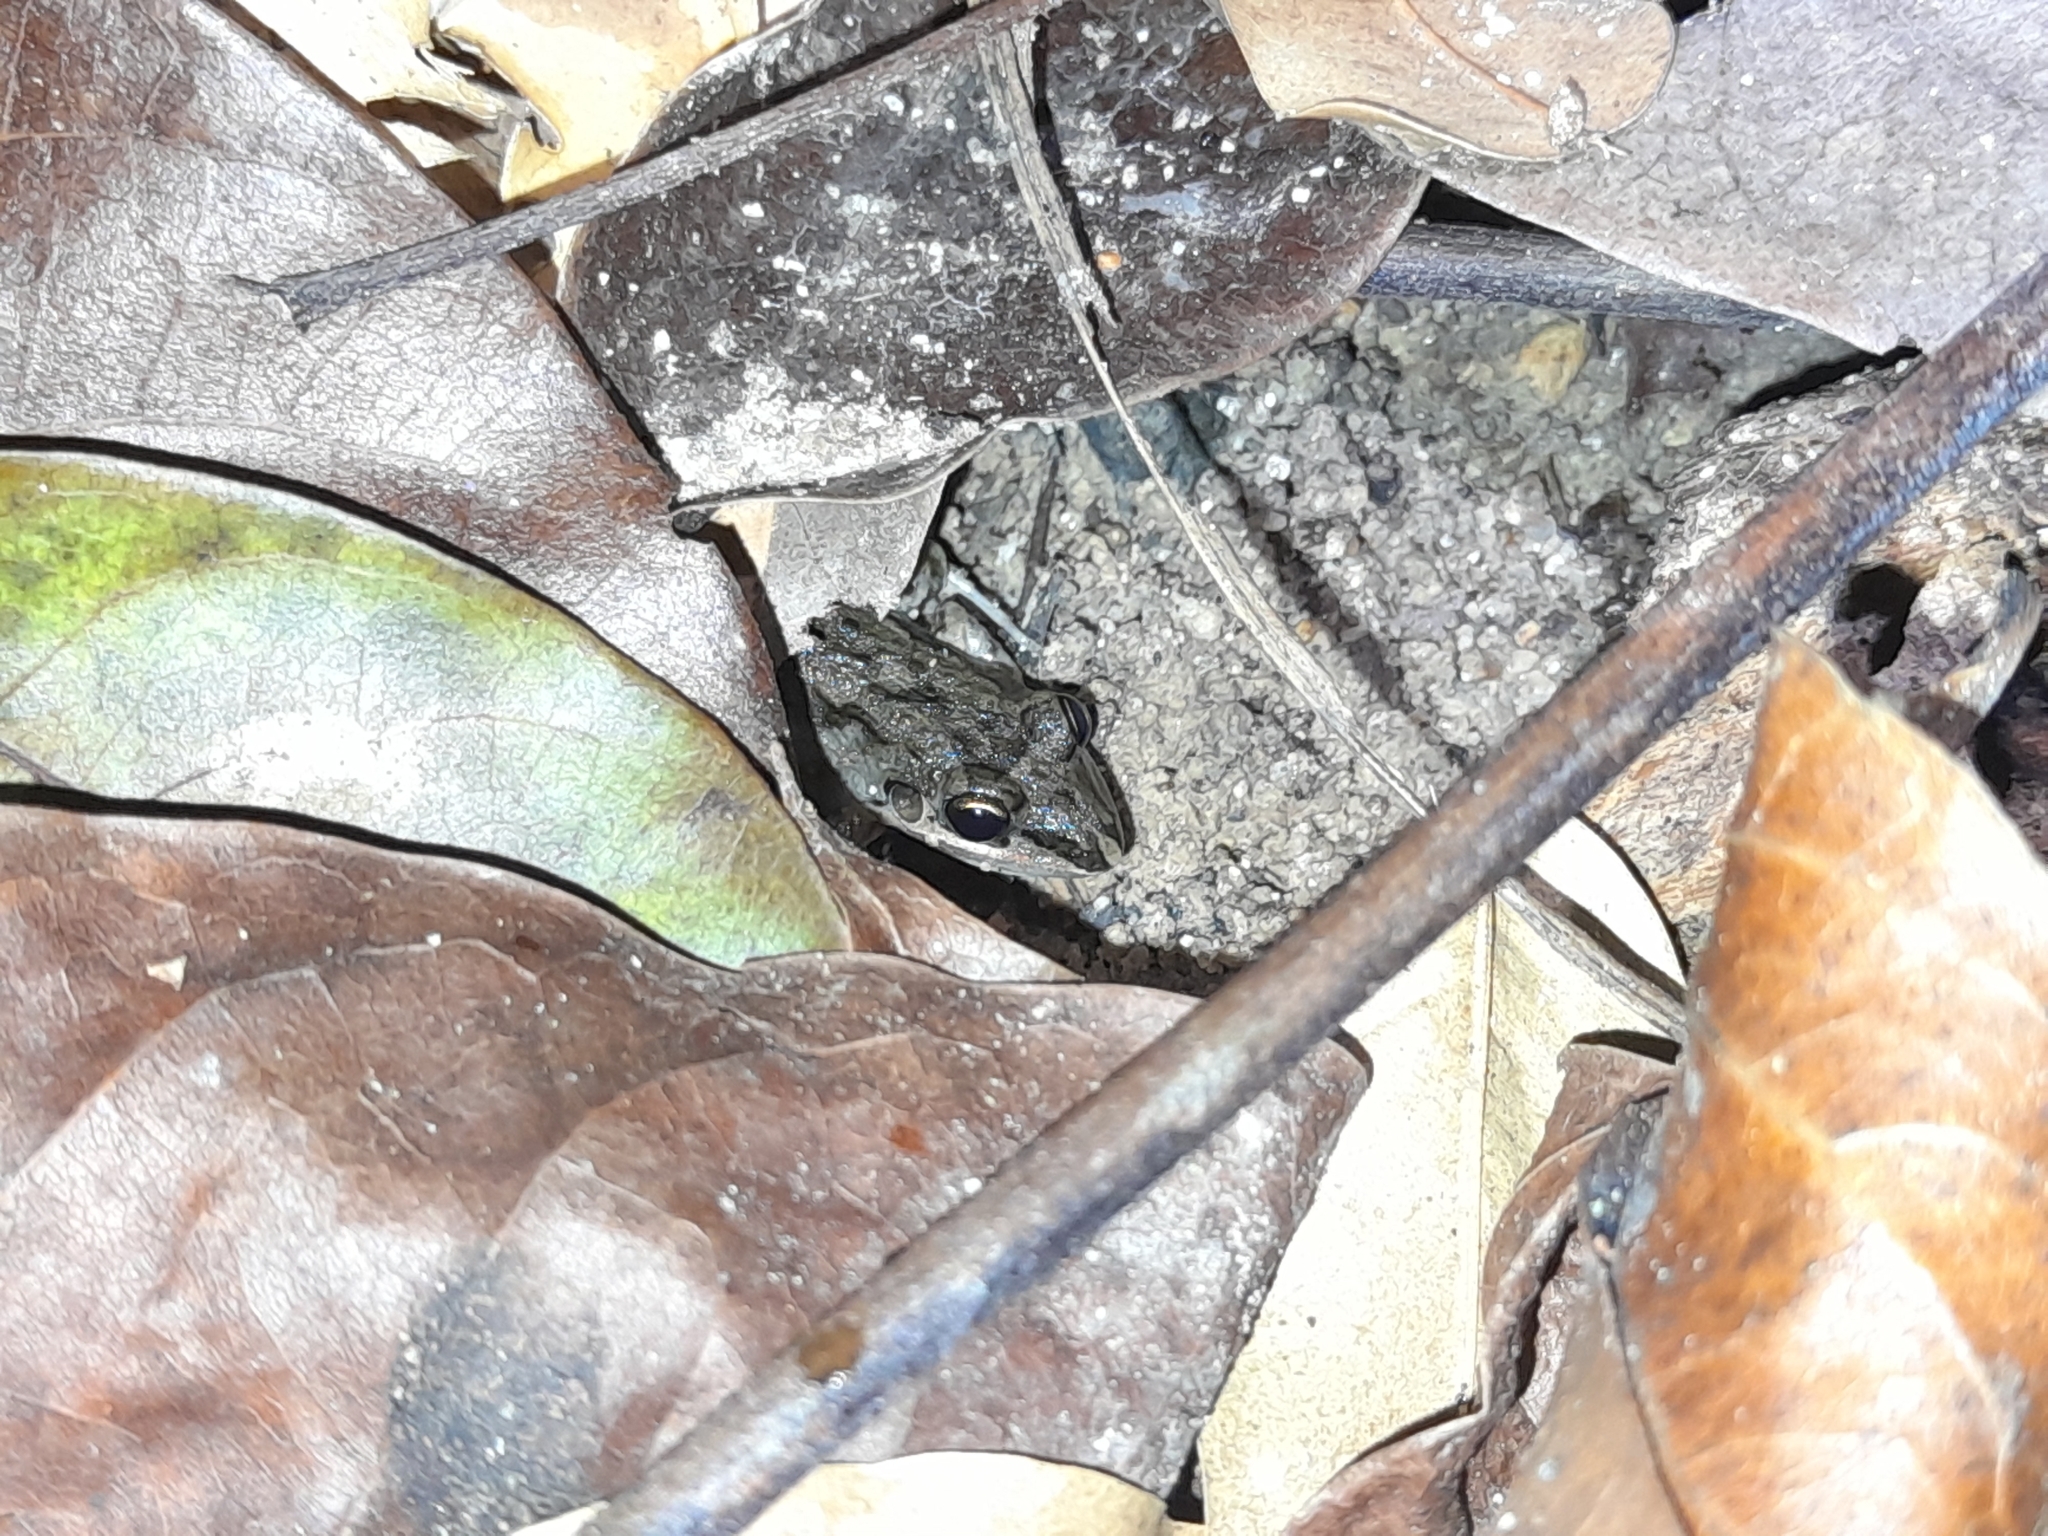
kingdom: Animalia
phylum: Chordata
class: Amphibia
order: Anura
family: Leptodactylidae
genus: Leptodactylus
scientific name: Leptodactylus fragilis
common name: Mexican white-lipped frog
